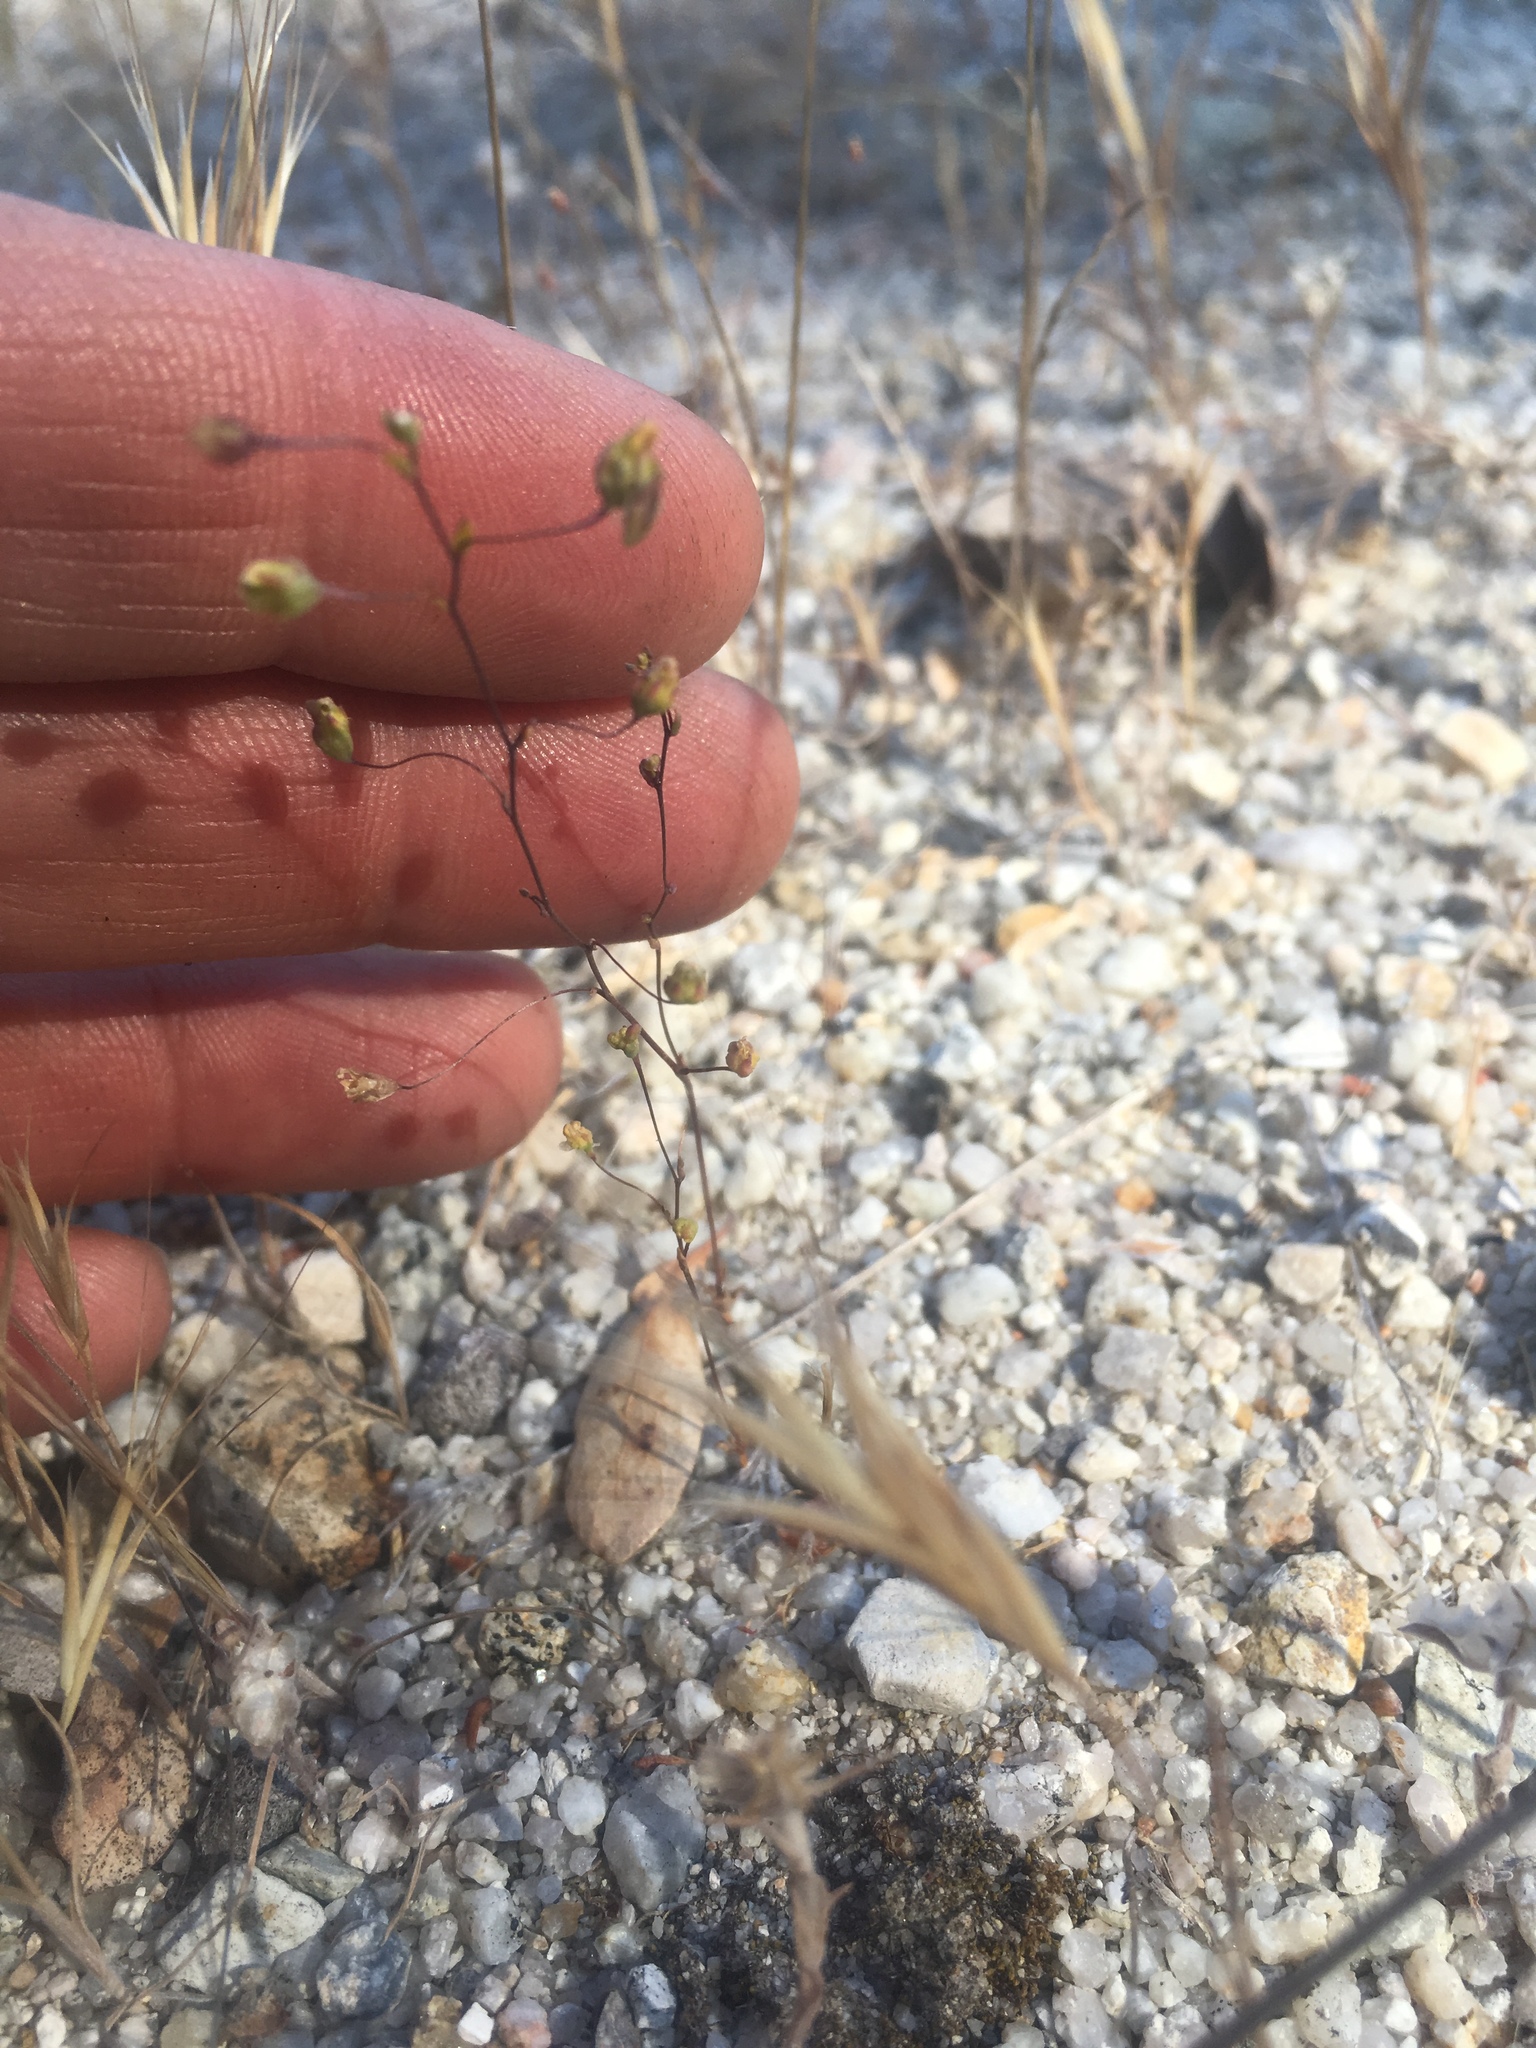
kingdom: Plantae
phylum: Tracheophyta
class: Magnoliopsida
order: Asterales
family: Campanulaceae
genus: Nemacladus
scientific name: Nemacladus secundiflorus
